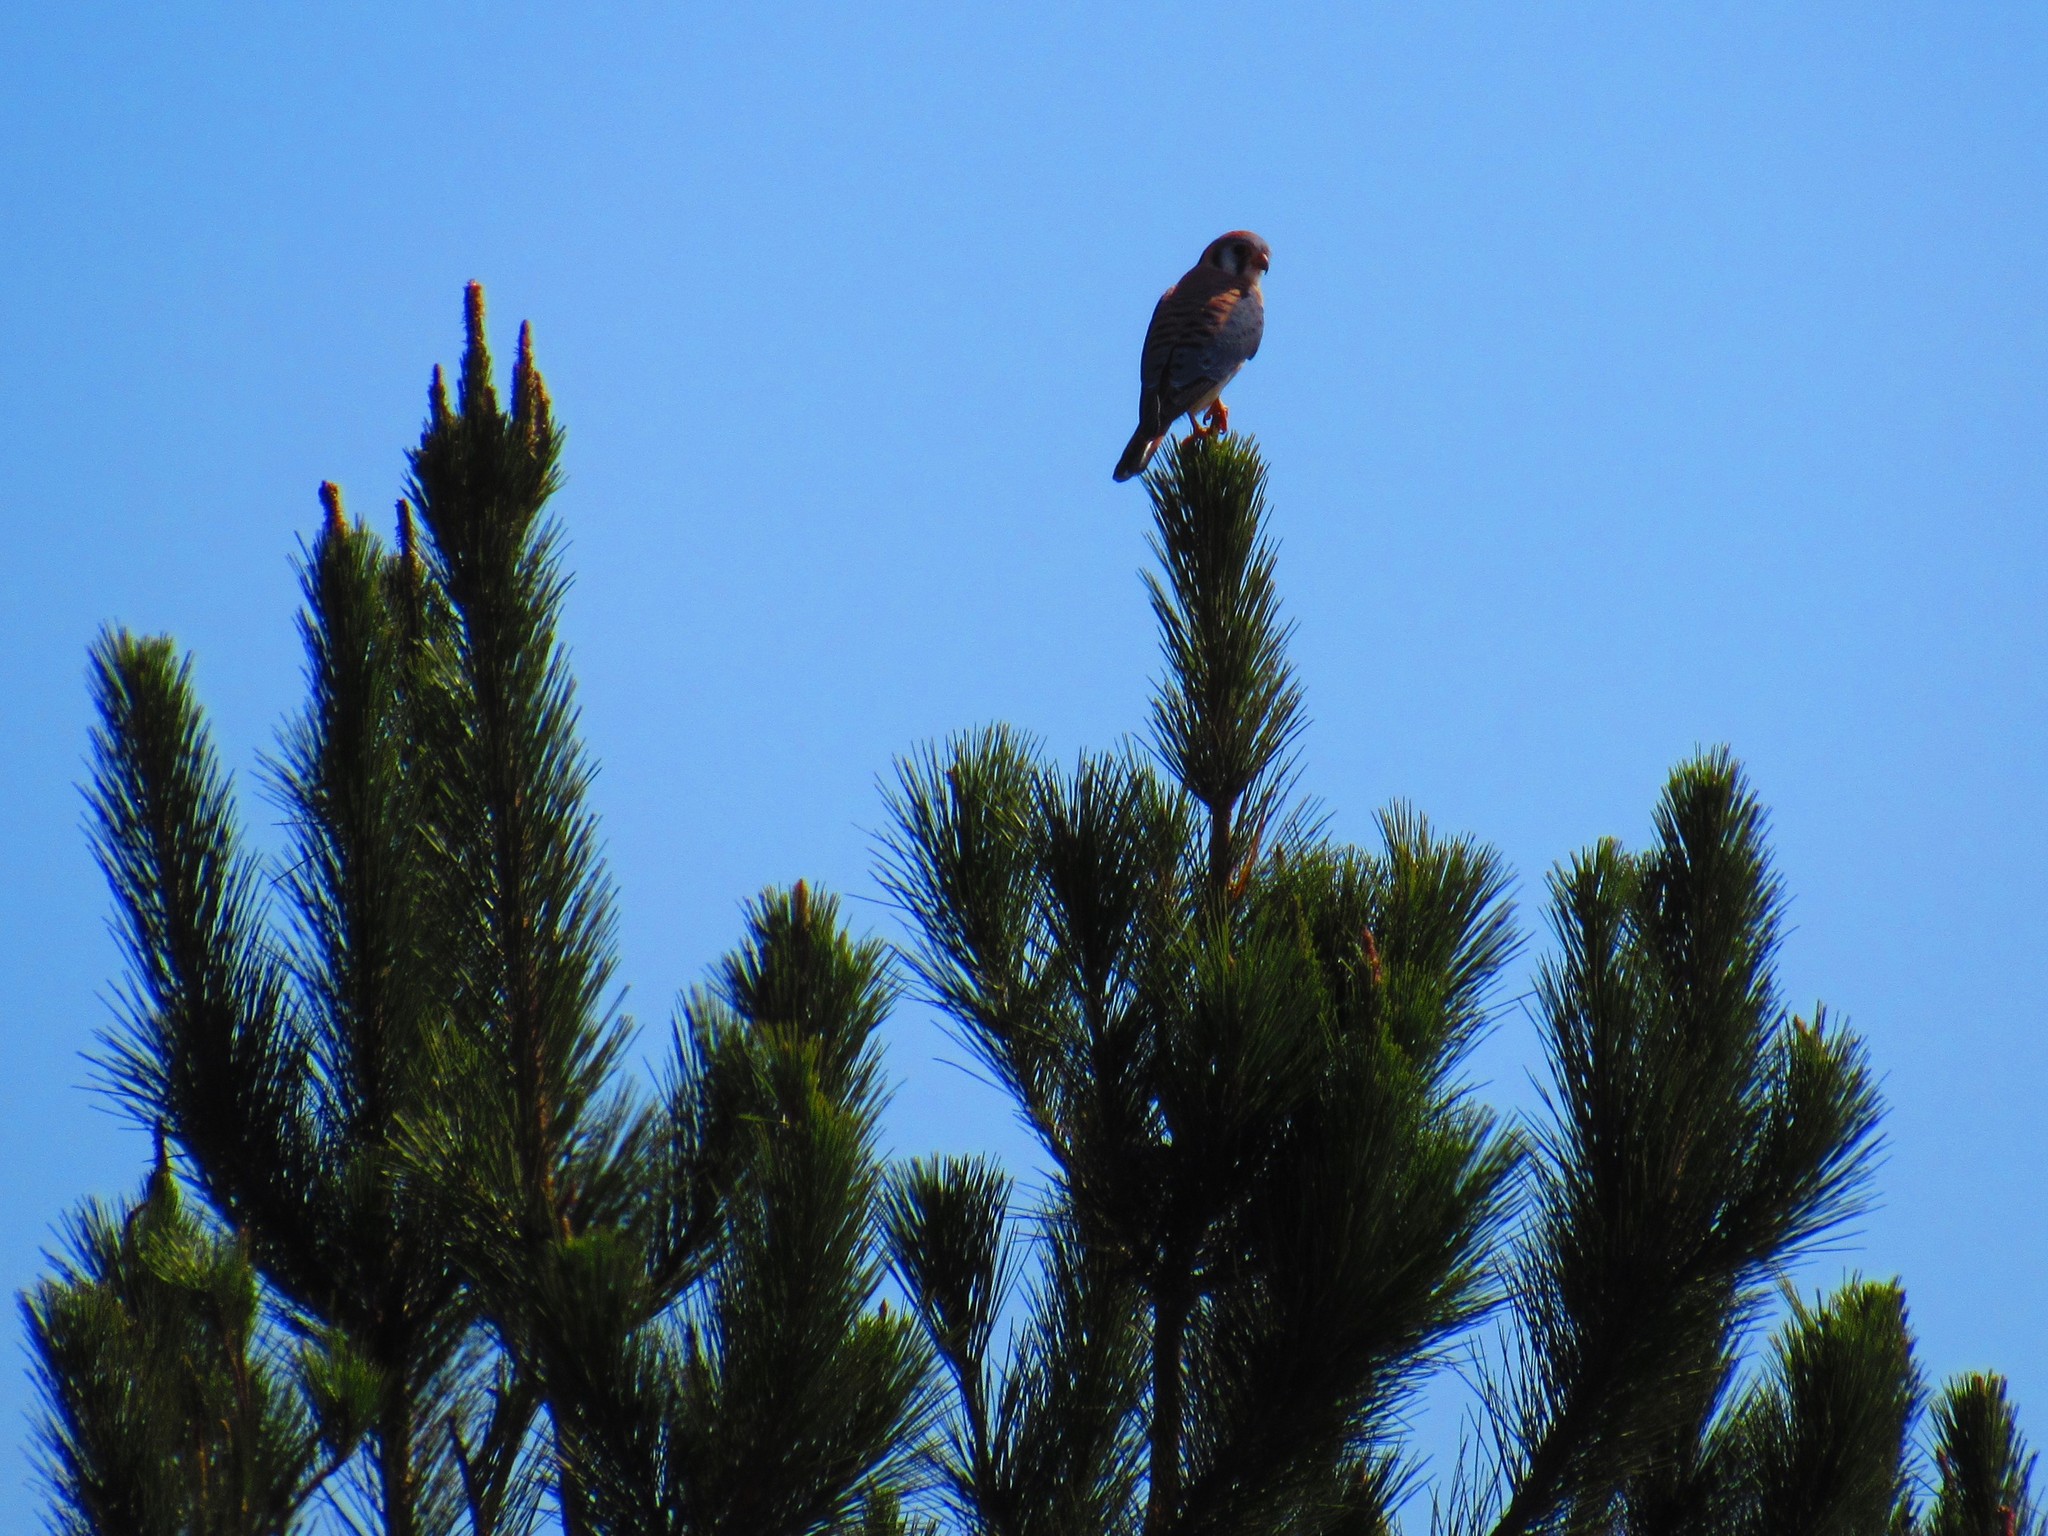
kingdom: Animalia
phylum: Chordata
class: Aves
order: Falconiformes
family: Falconidae
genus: Falco
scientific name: Falco sparverius
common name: American kestrel
